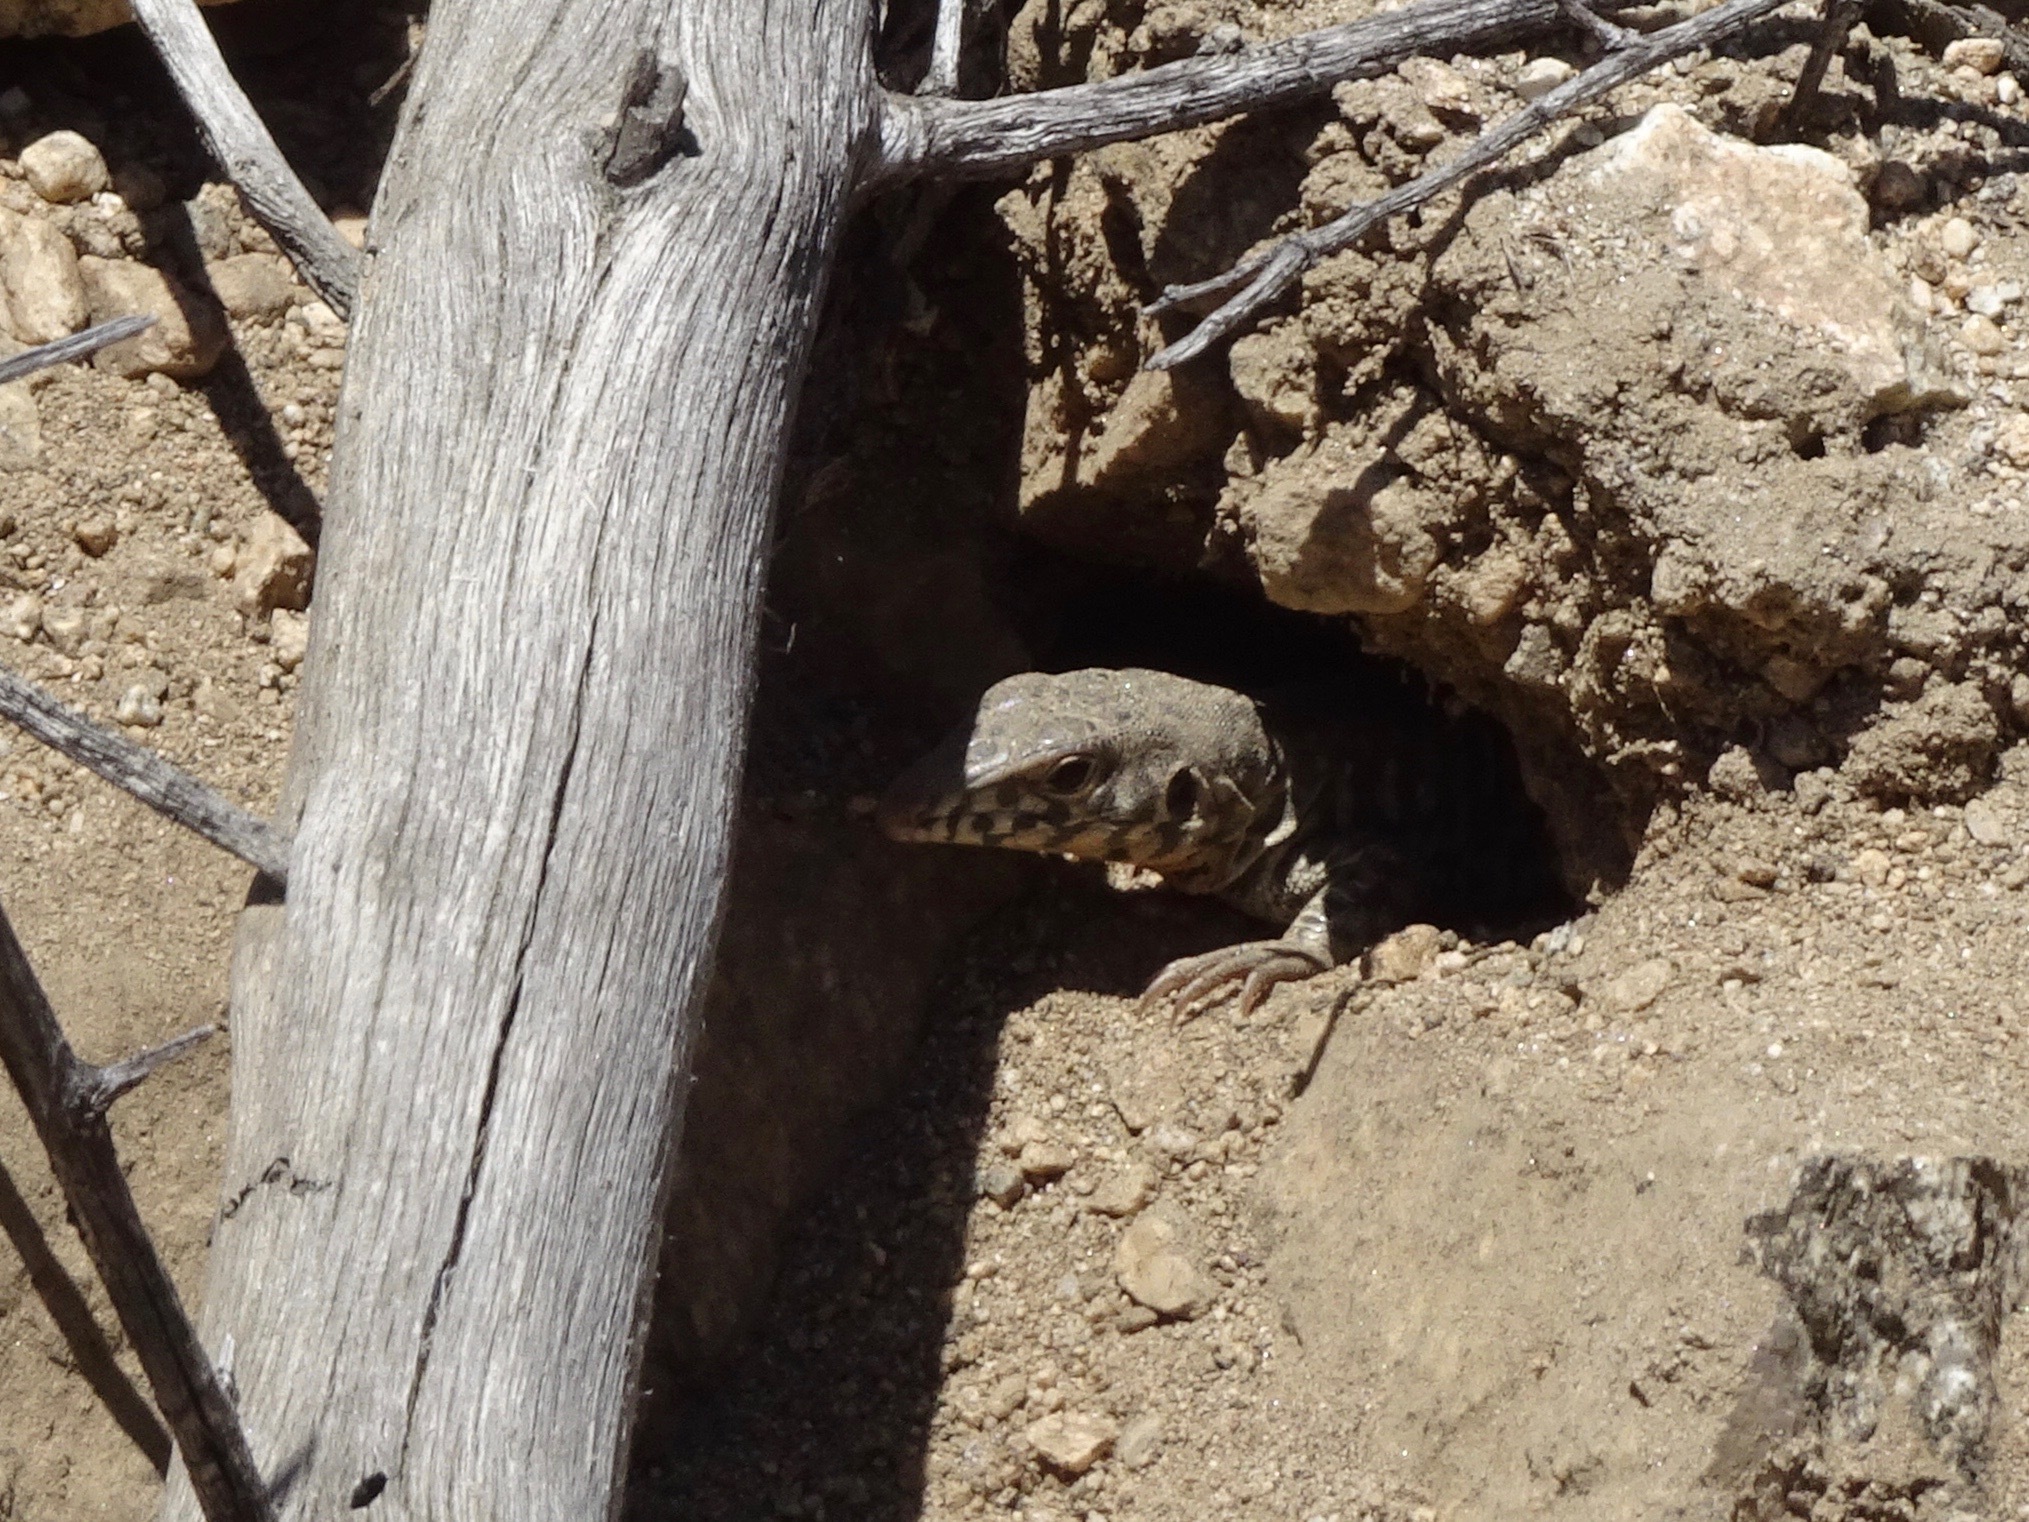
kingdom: Animalia
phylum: Chordata
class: Squamata
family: Teiidae
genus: Aspidoscelis
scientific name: Aspidoscelis tigris
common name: Tiger whiptail
